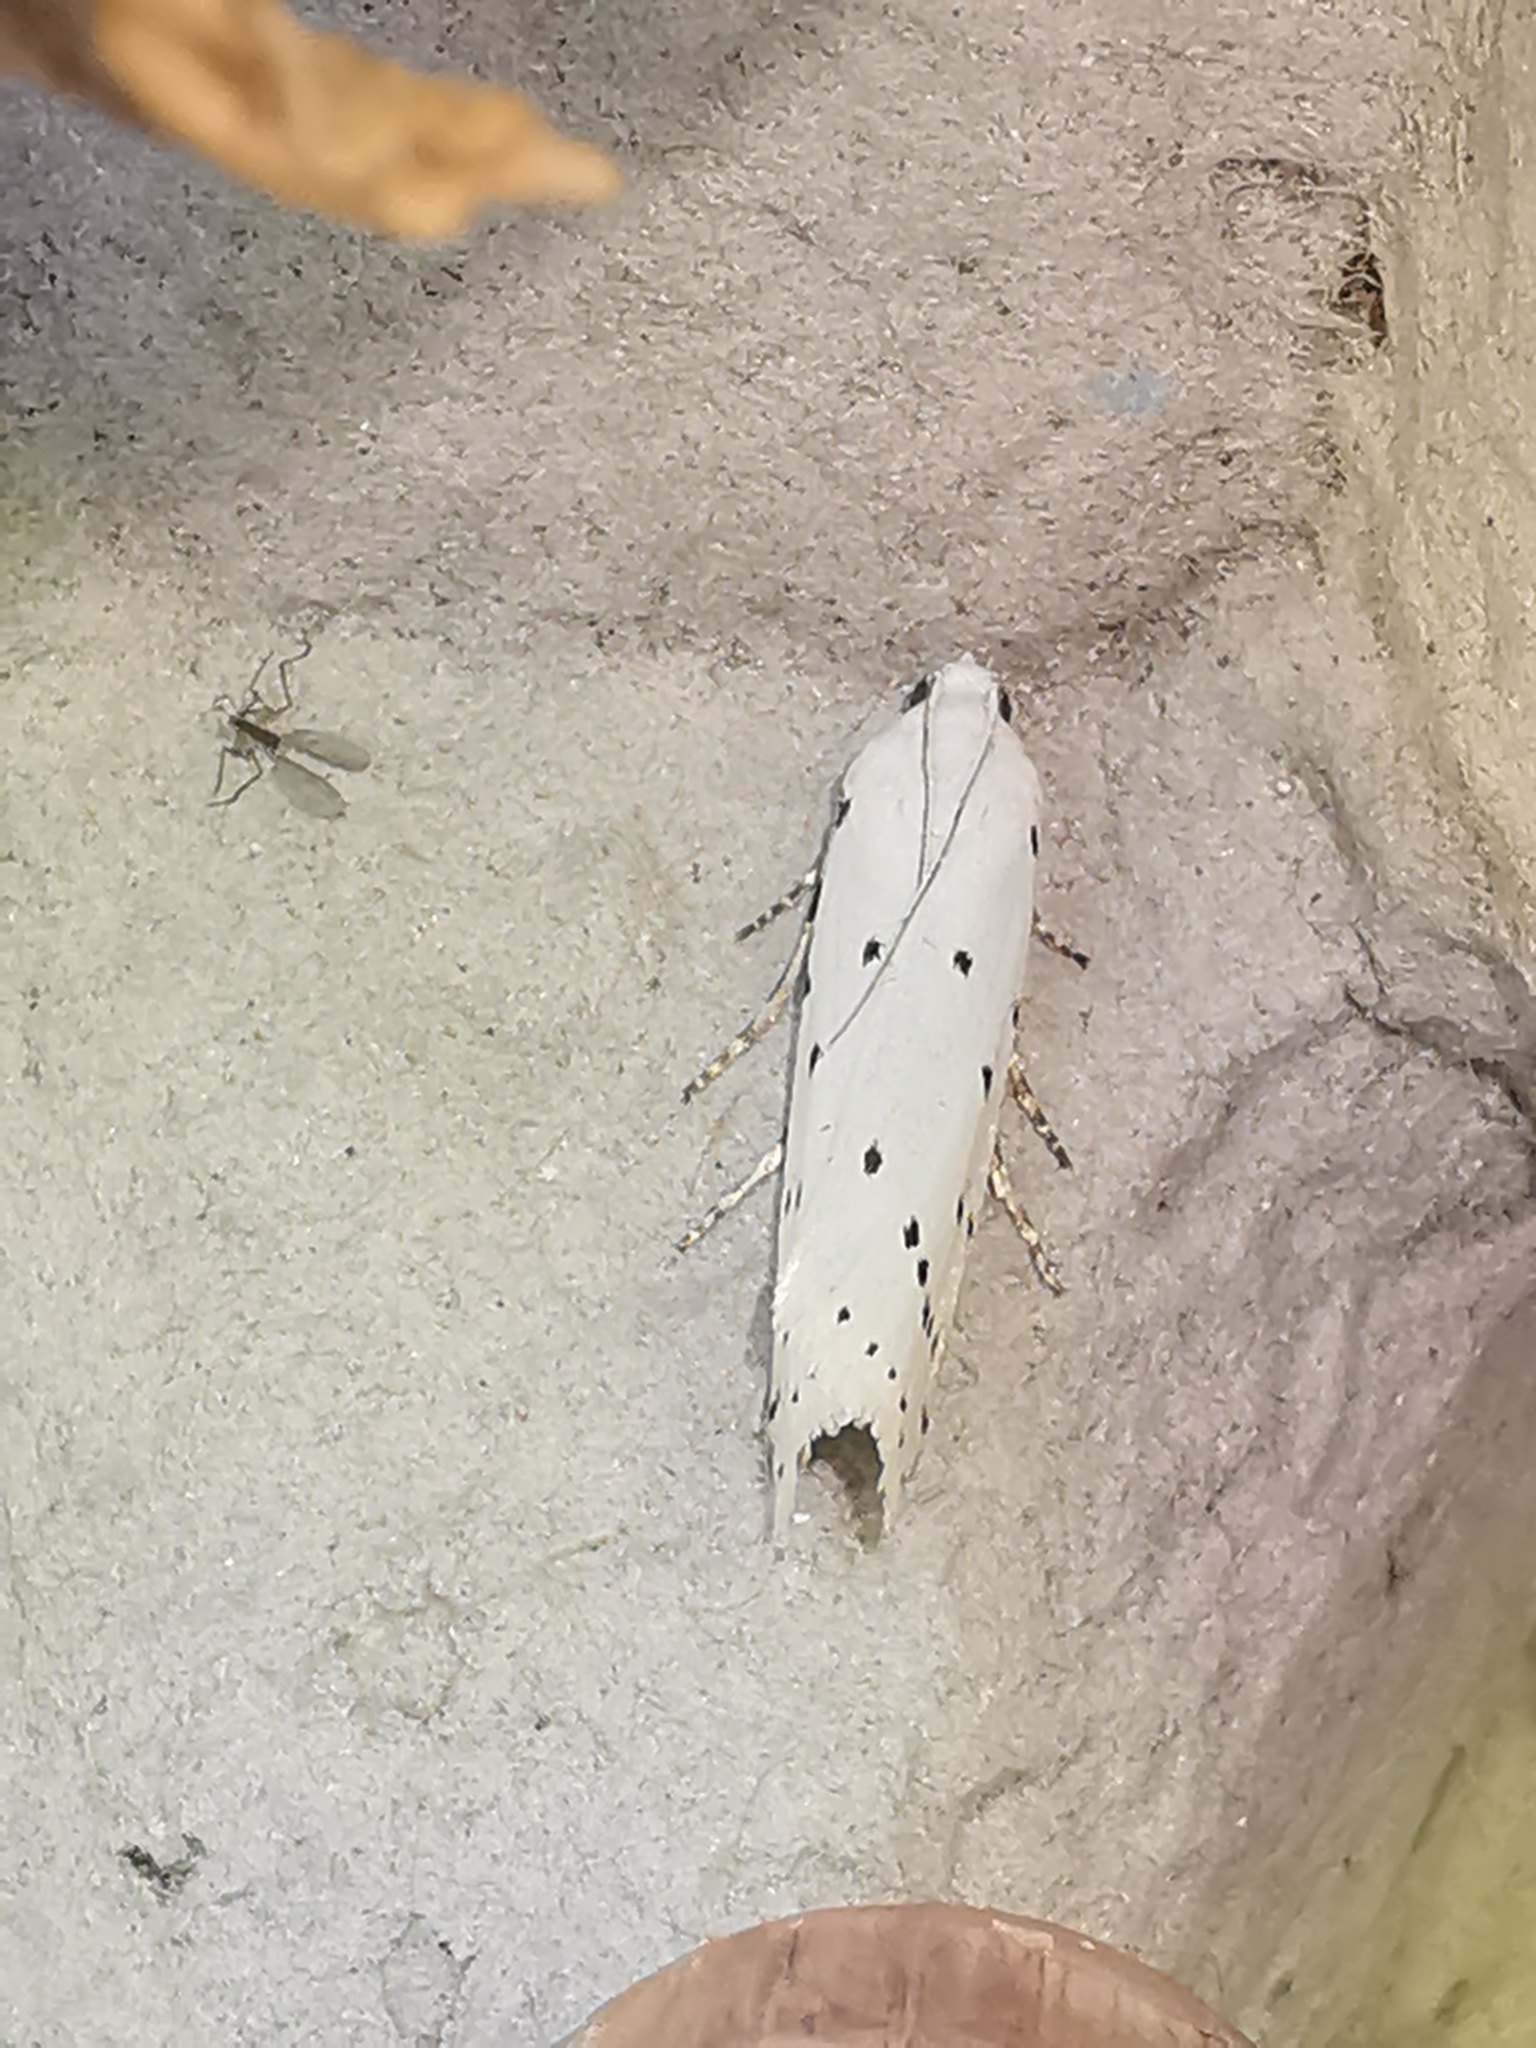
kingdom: Animalia
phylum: Arthropoda
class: Insecta
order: Lepidoptera
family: Pyralidae
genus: Myelois
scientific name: Myelois circumvoluta
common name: Thistle ermine
